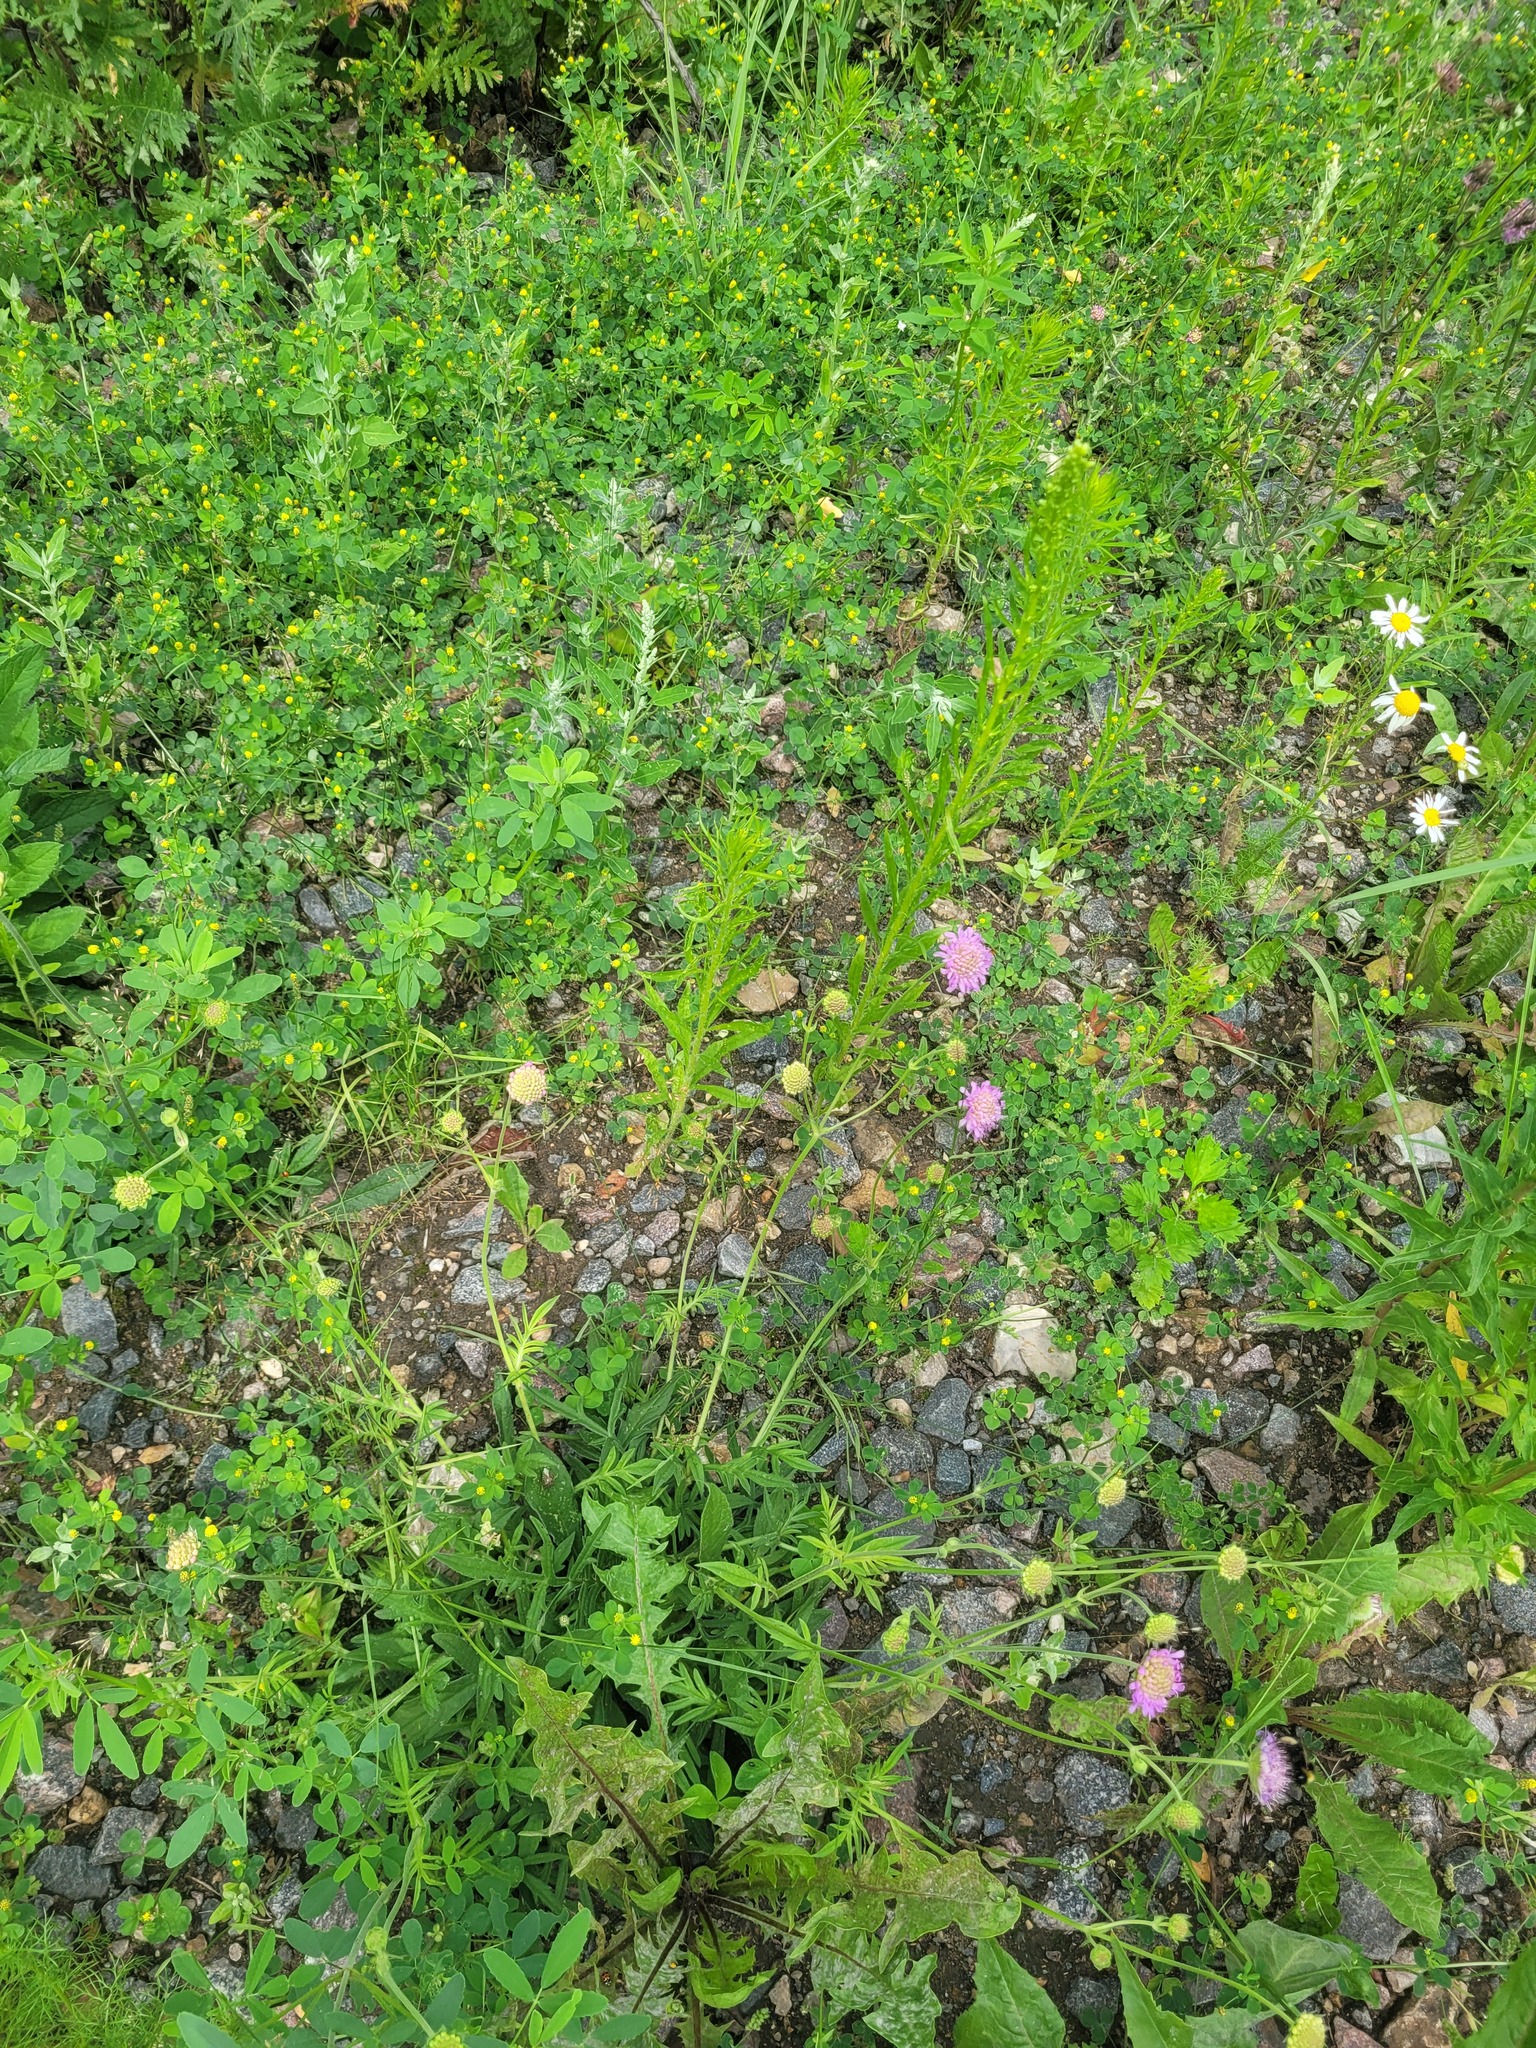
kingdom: Plantae
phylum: Tracheophyta
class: Magnoliopsida
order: Dipsacales
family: Caprifoliaceae
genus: Knautia
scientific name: Knautia arvensis
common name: Field scabiosa
